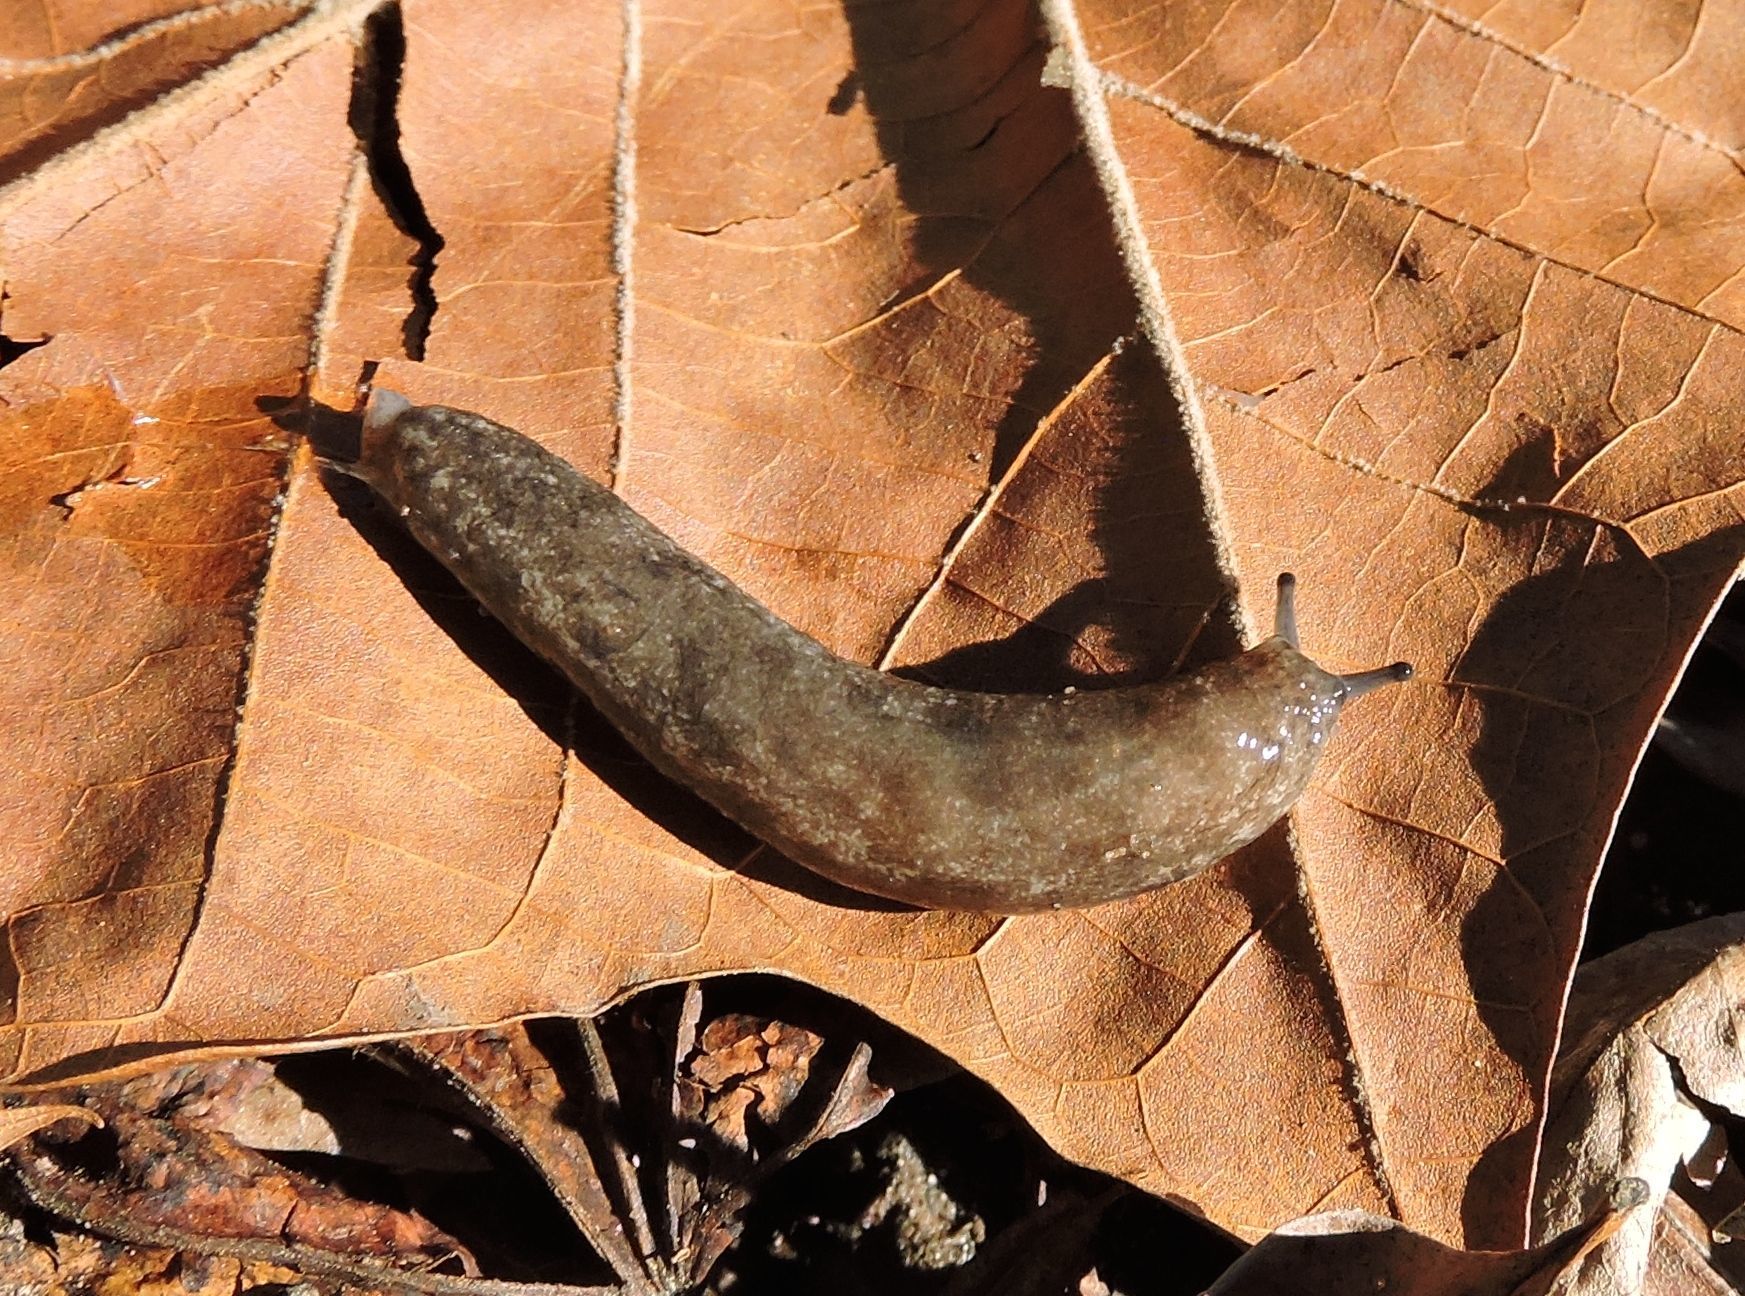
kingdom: Animalia
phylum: Mollusca
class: Gastropoda
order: Stylommatophora
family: Philomycidae
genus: Megapallifera
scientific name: Megapallifera mutabilis
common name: Changeable mantleslug
